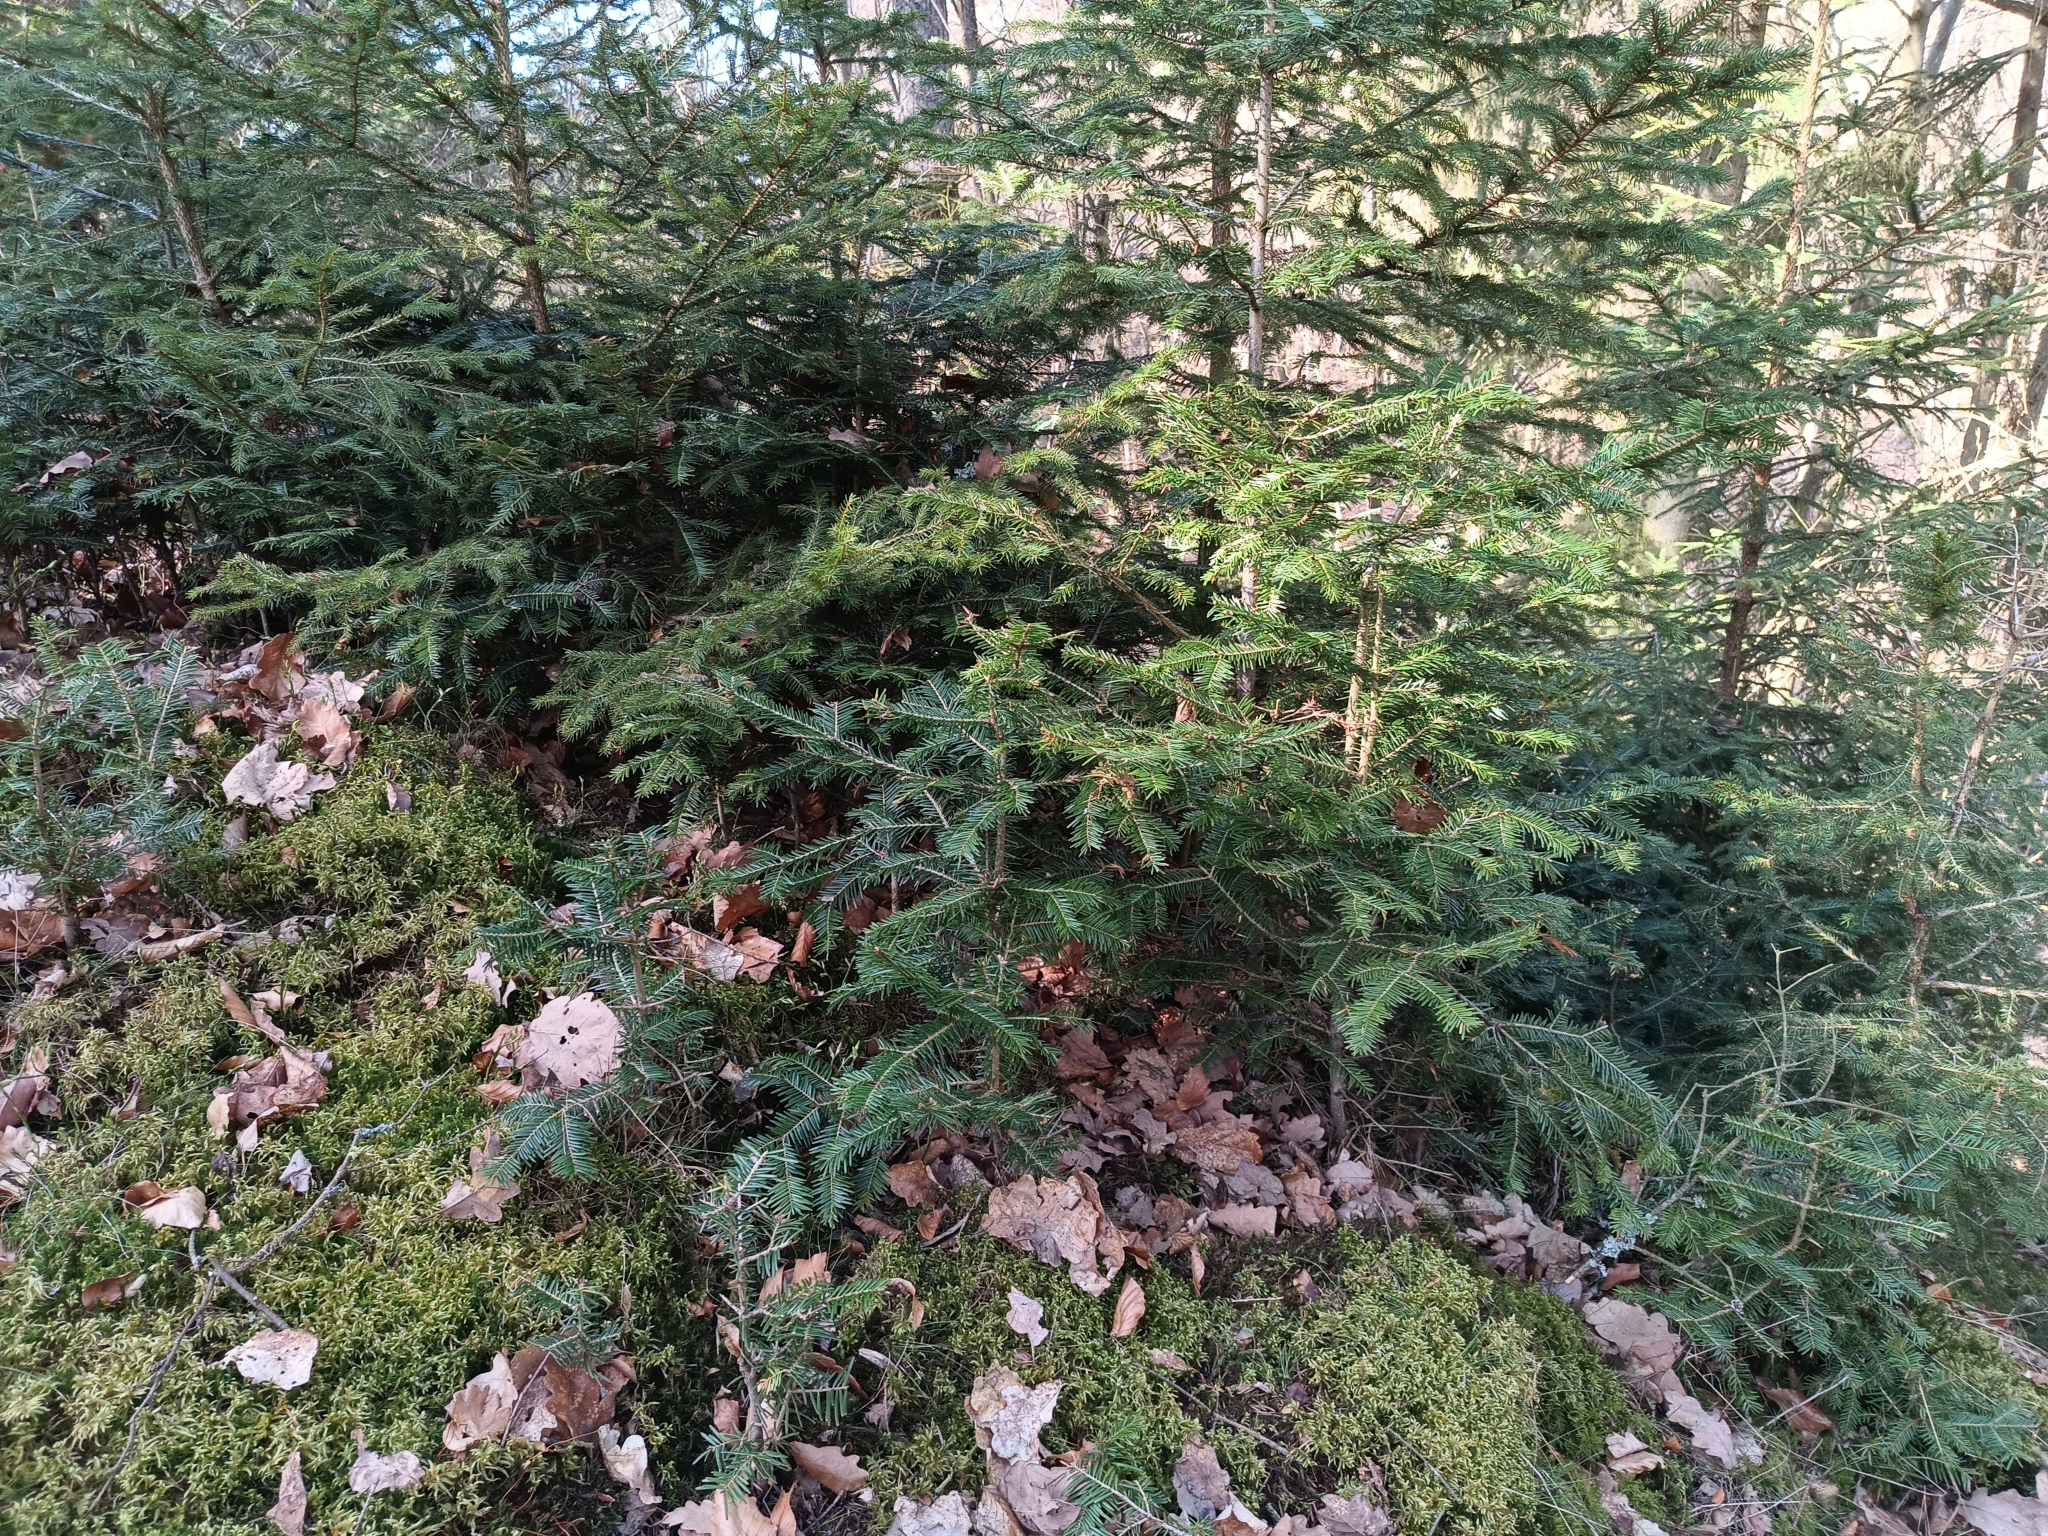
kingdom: Plantae
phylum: Tracheophyta
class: Pinopsida
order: Pinales
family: Pinaceae
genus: Abies
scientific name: Abies alba
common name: Silver fir
